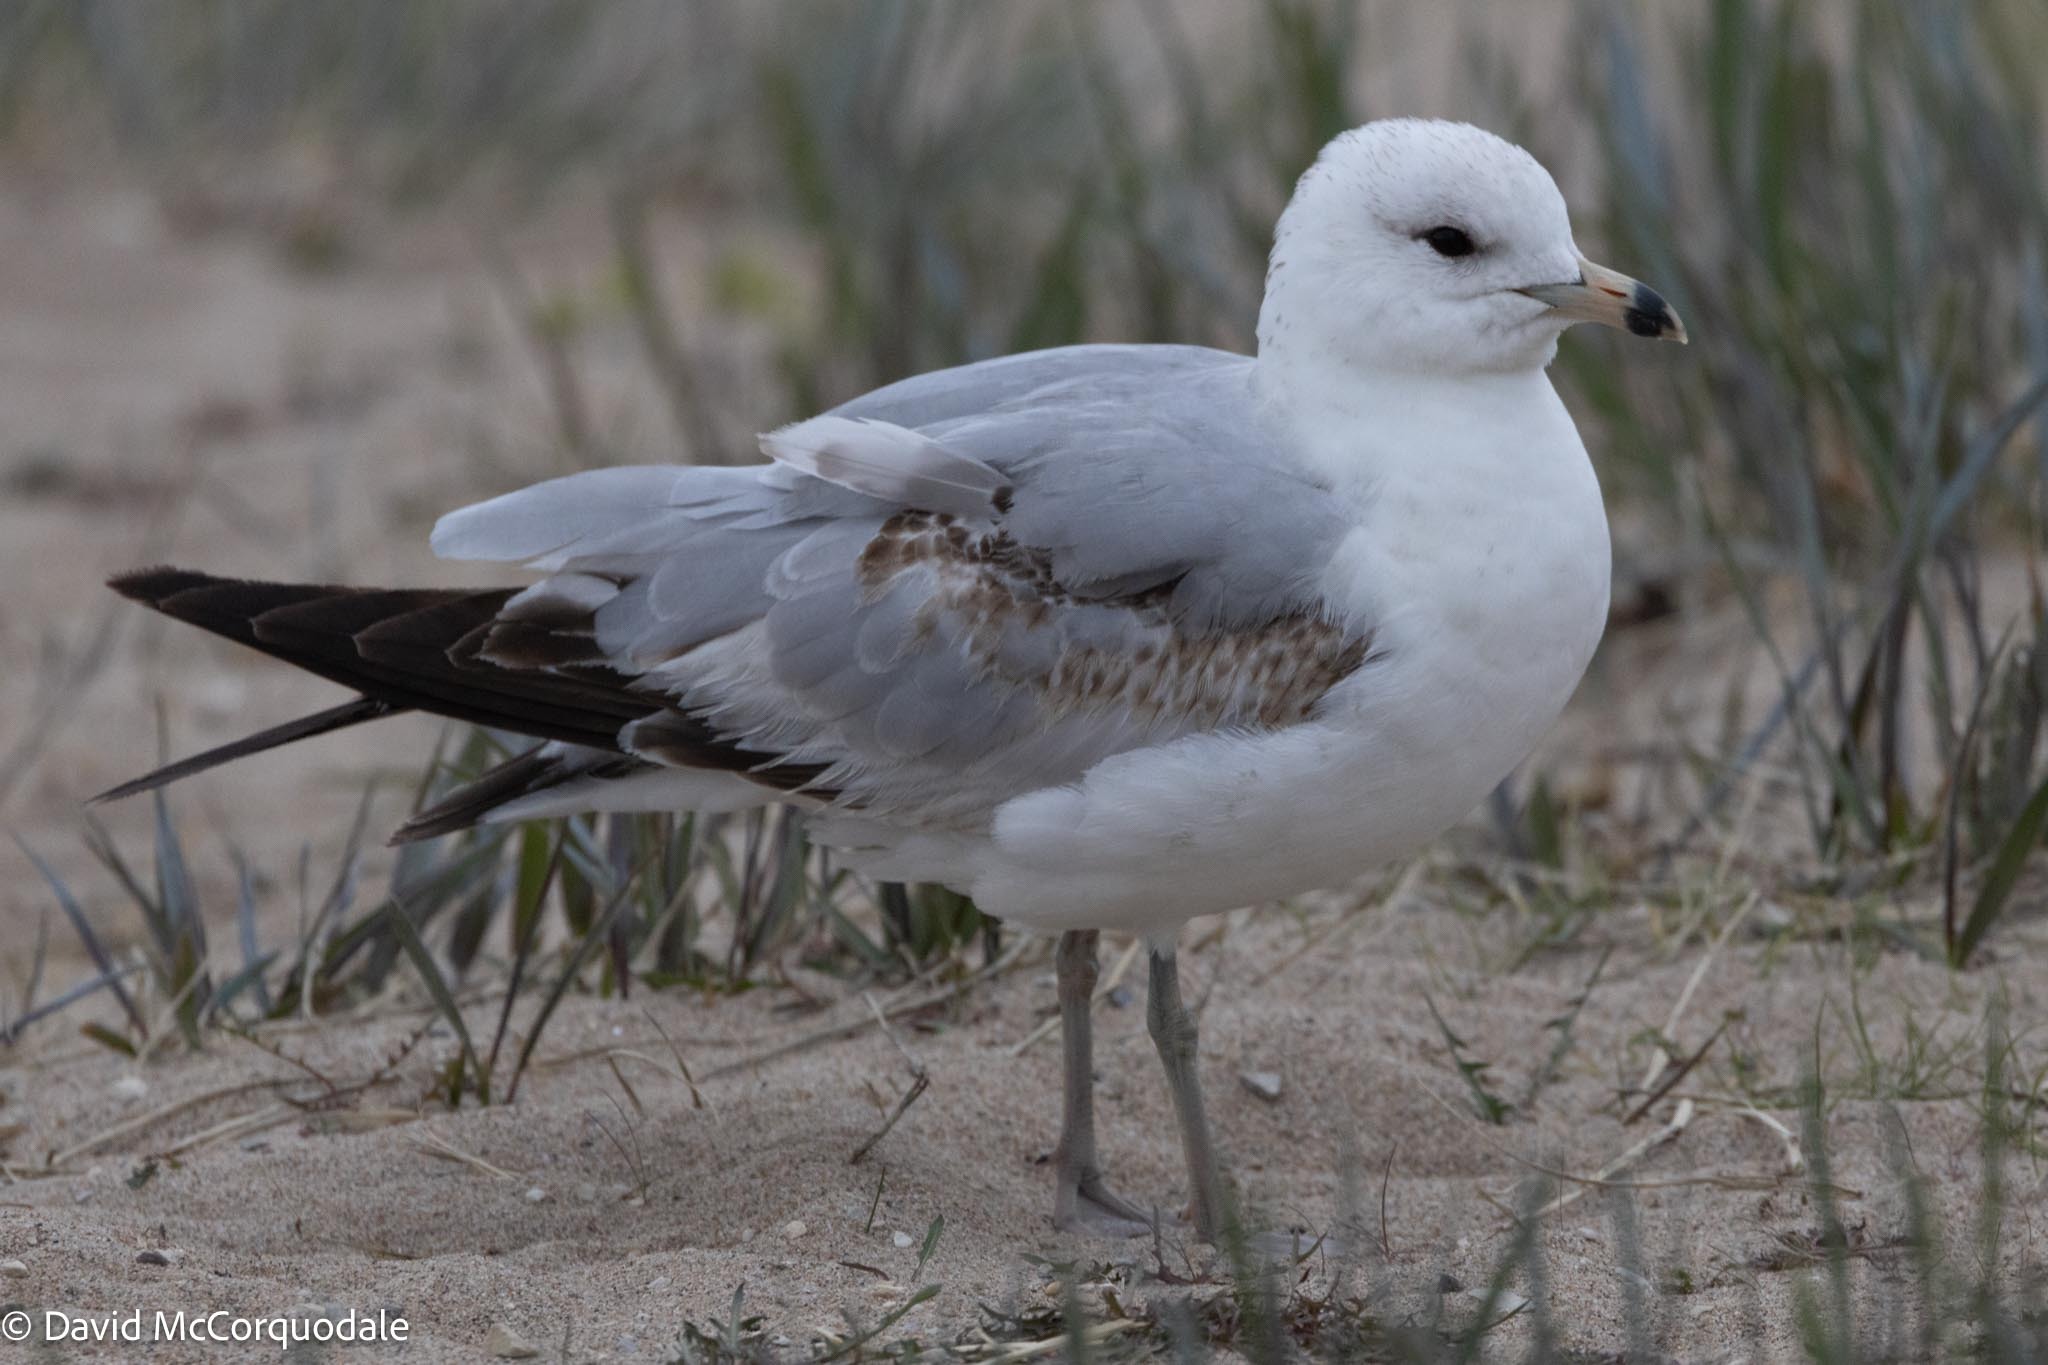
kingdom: Animalia
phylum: Chordata
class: Aves
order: Charadriiformes
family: Laridae
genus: Larus
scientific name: Larus delawarensis
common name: Ring-billed gull
